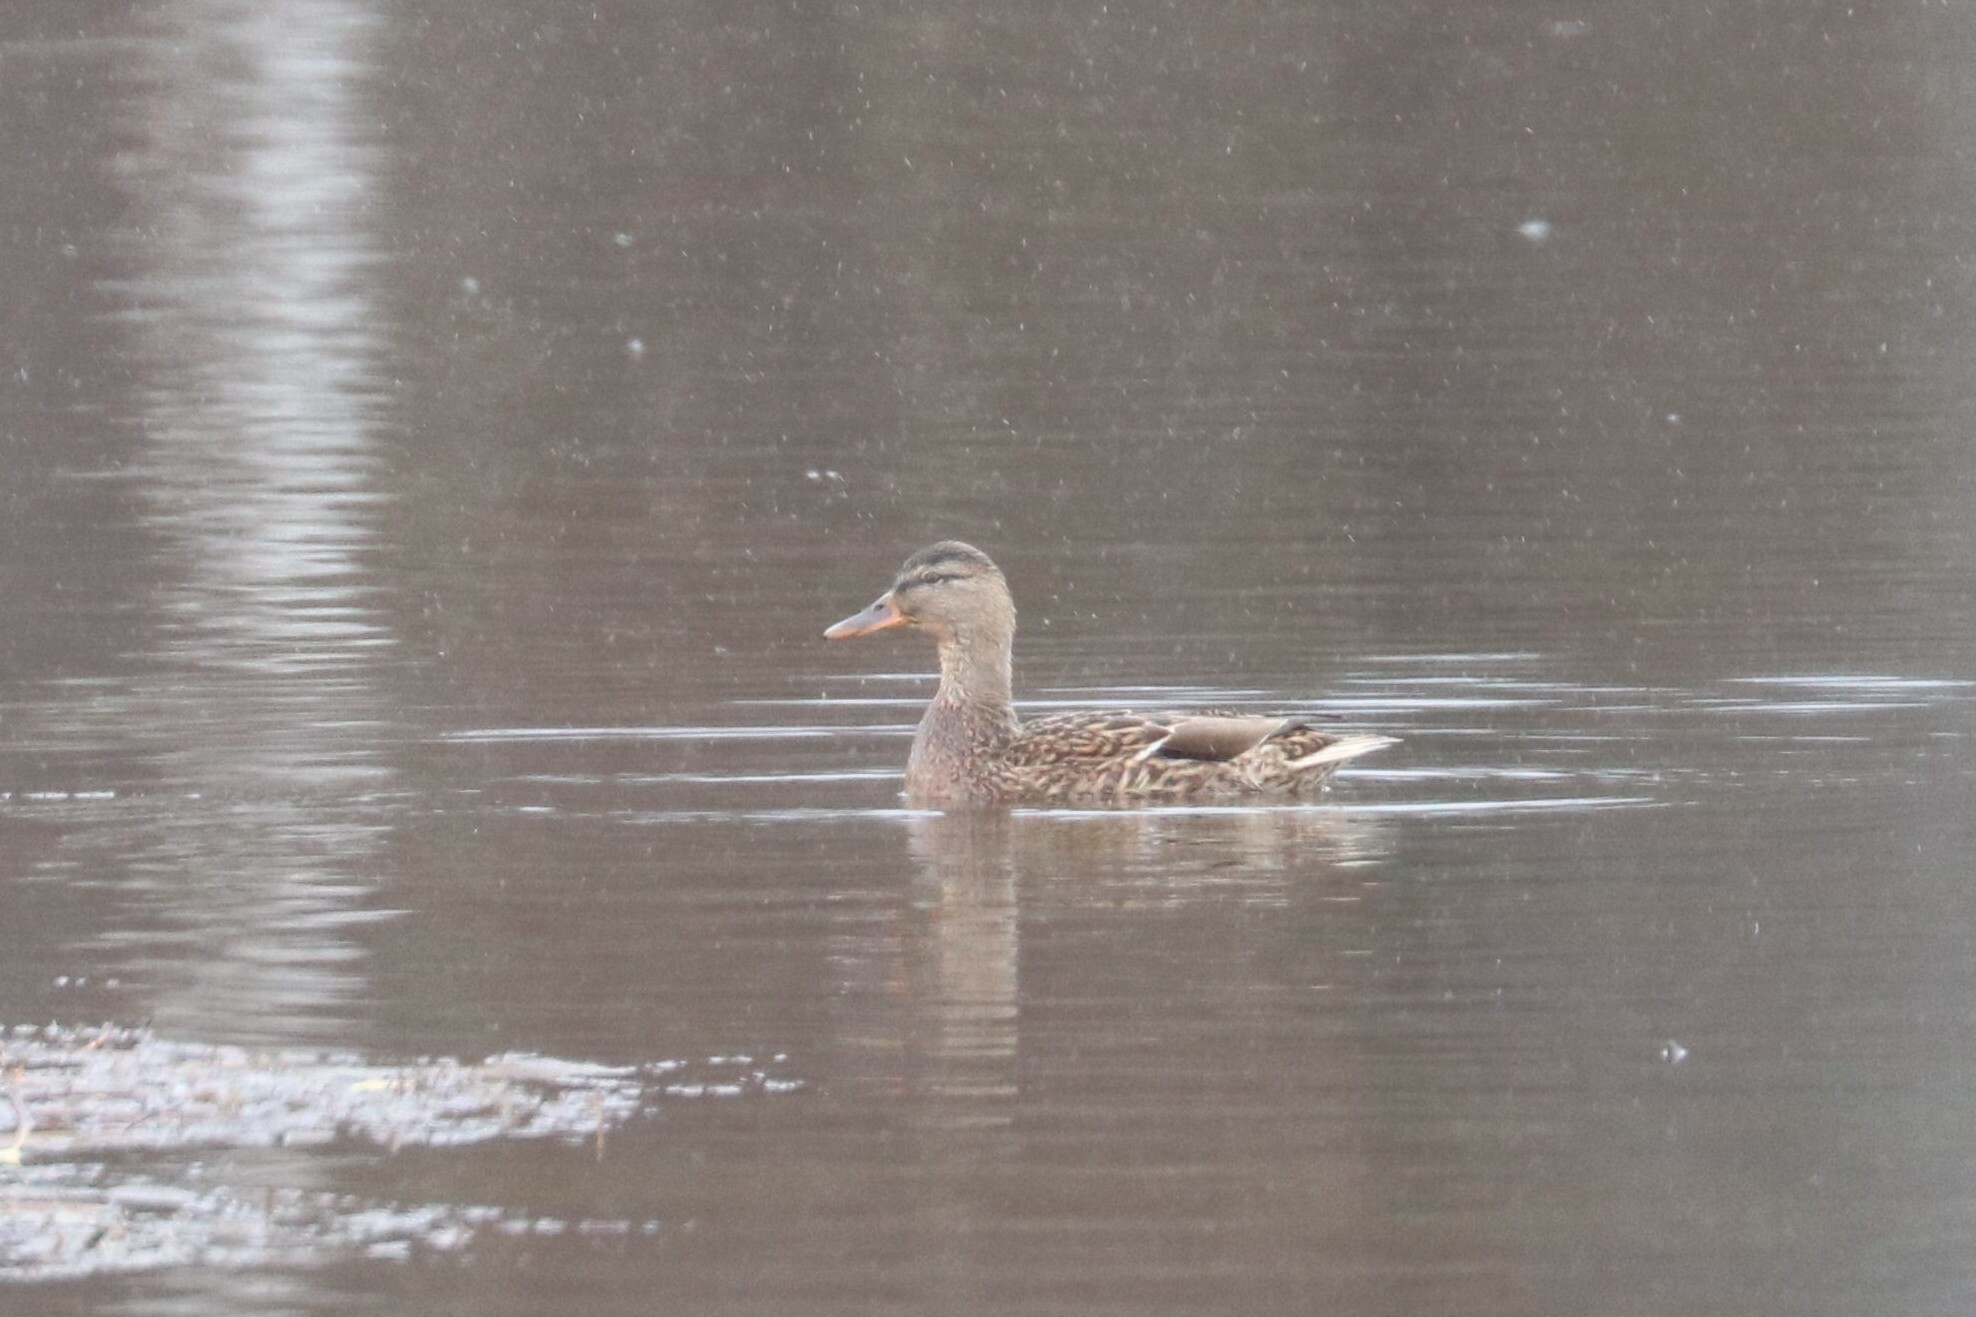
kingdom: Animalia
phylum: Chordata
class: Aves
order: Anseriformes
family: Anatidae
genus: Anas
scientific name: Anas platyrhynchos
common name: Mallard
